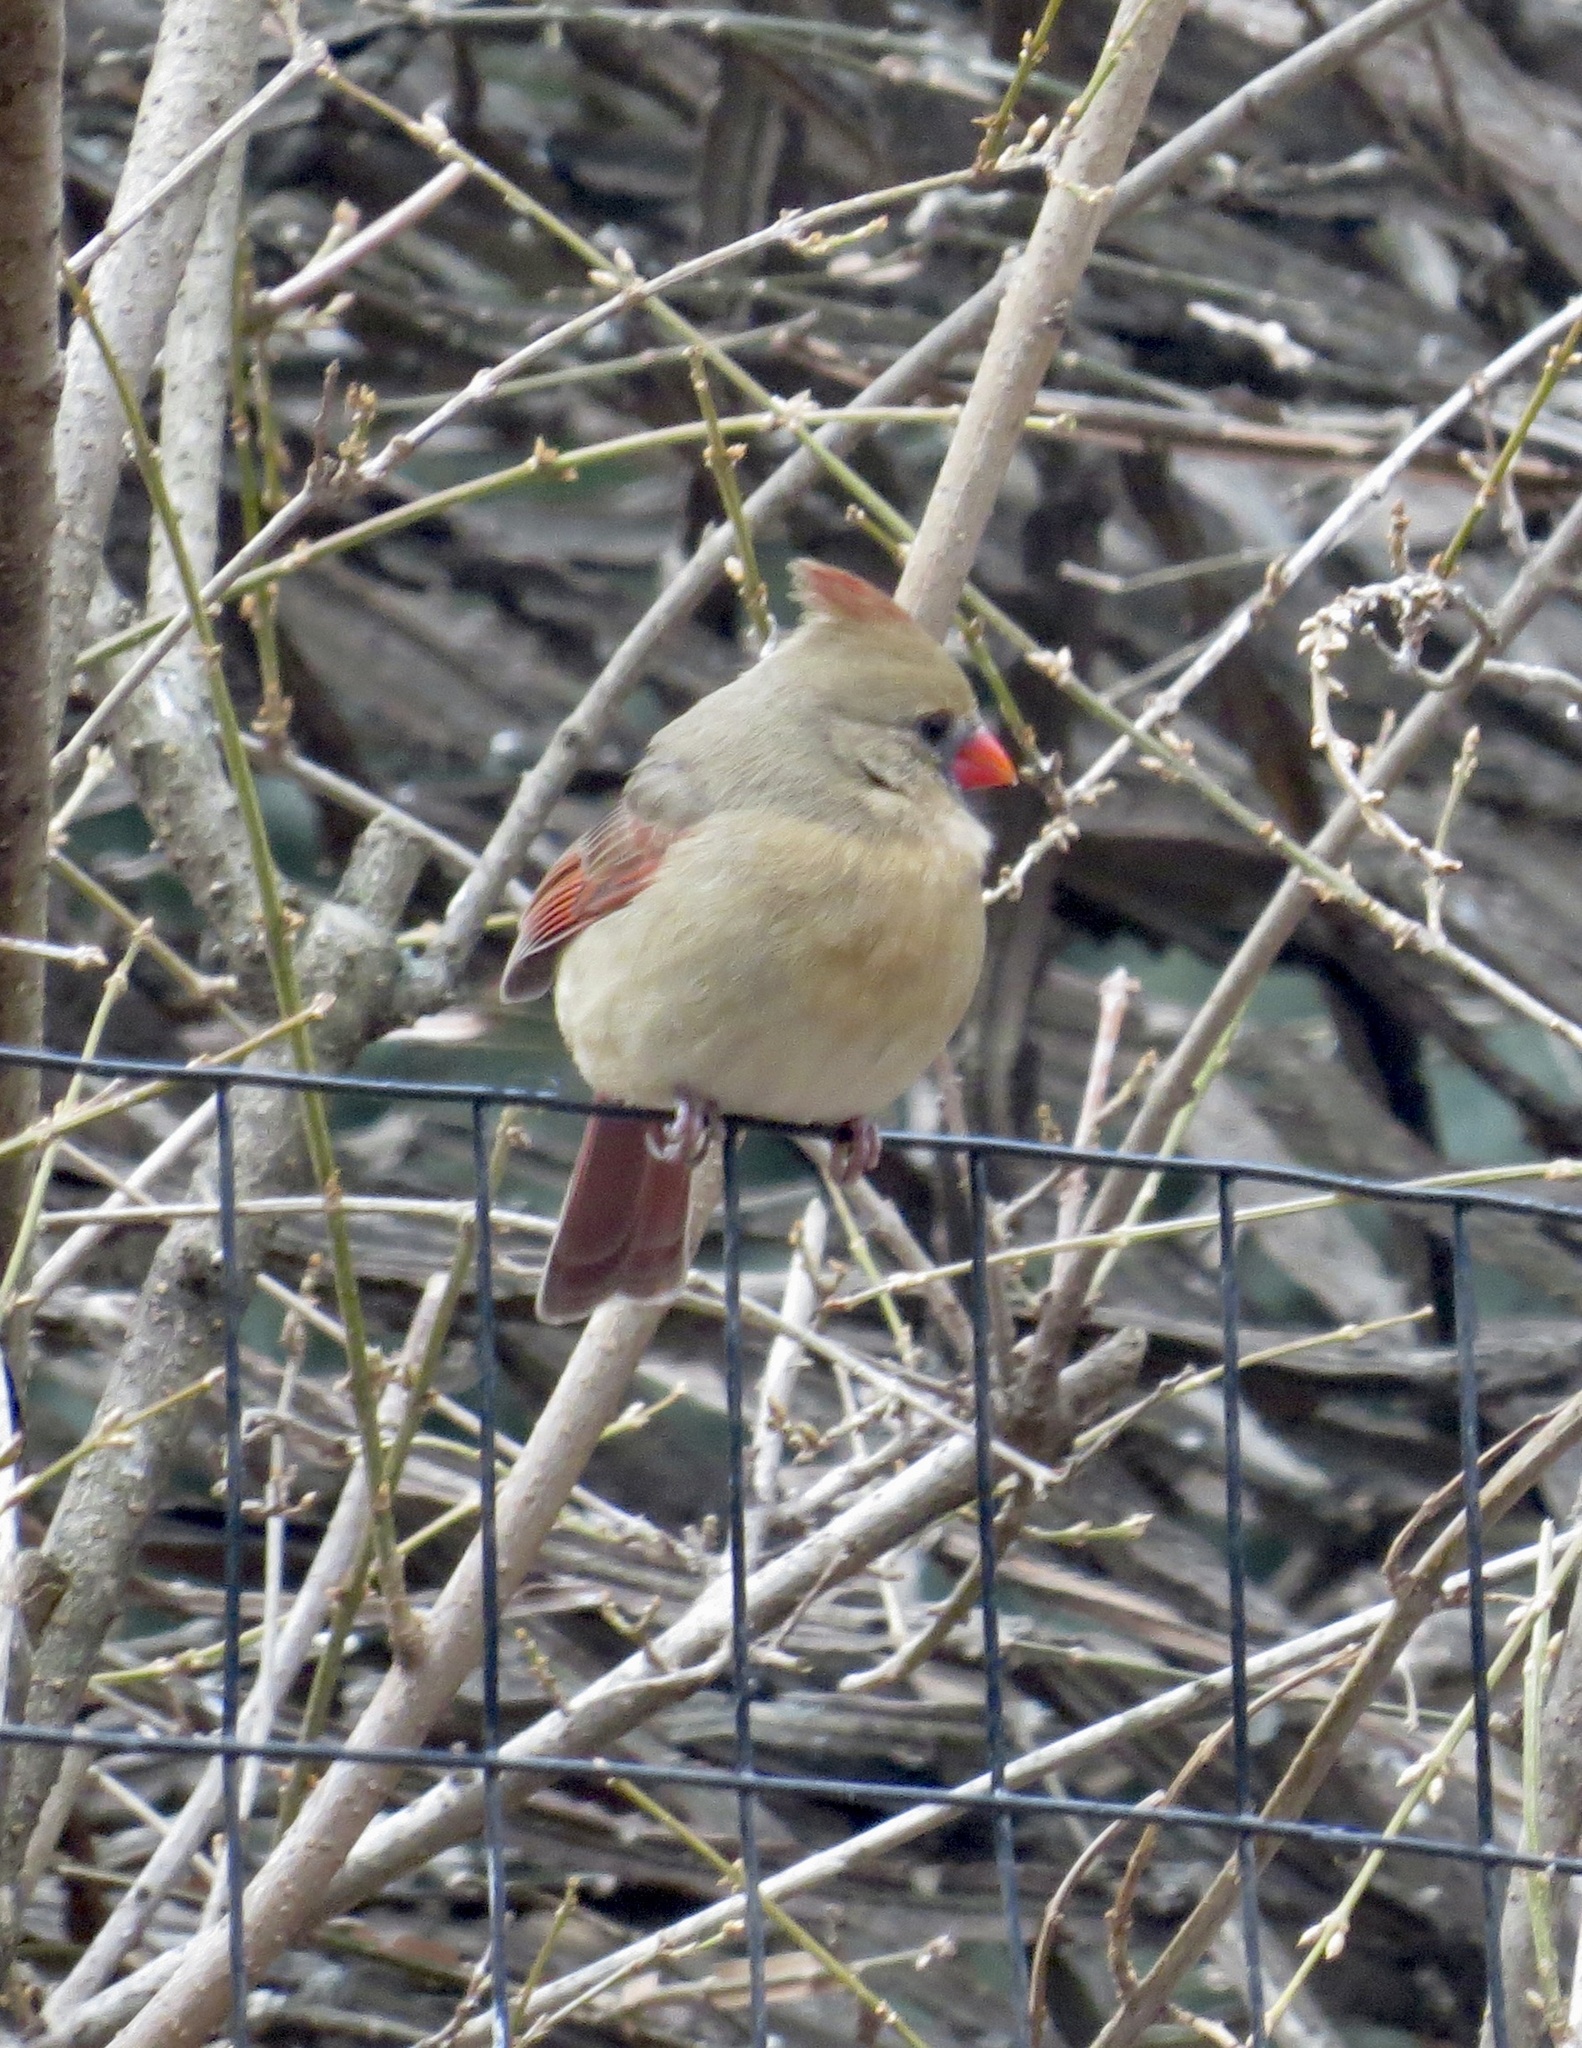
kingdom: Animalia
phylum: Chordata
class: Aves
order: Passeriformes
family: Cardinalidae
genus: Cardinalis
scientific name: Cardinalis cardinalis
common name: Northern cardinal
